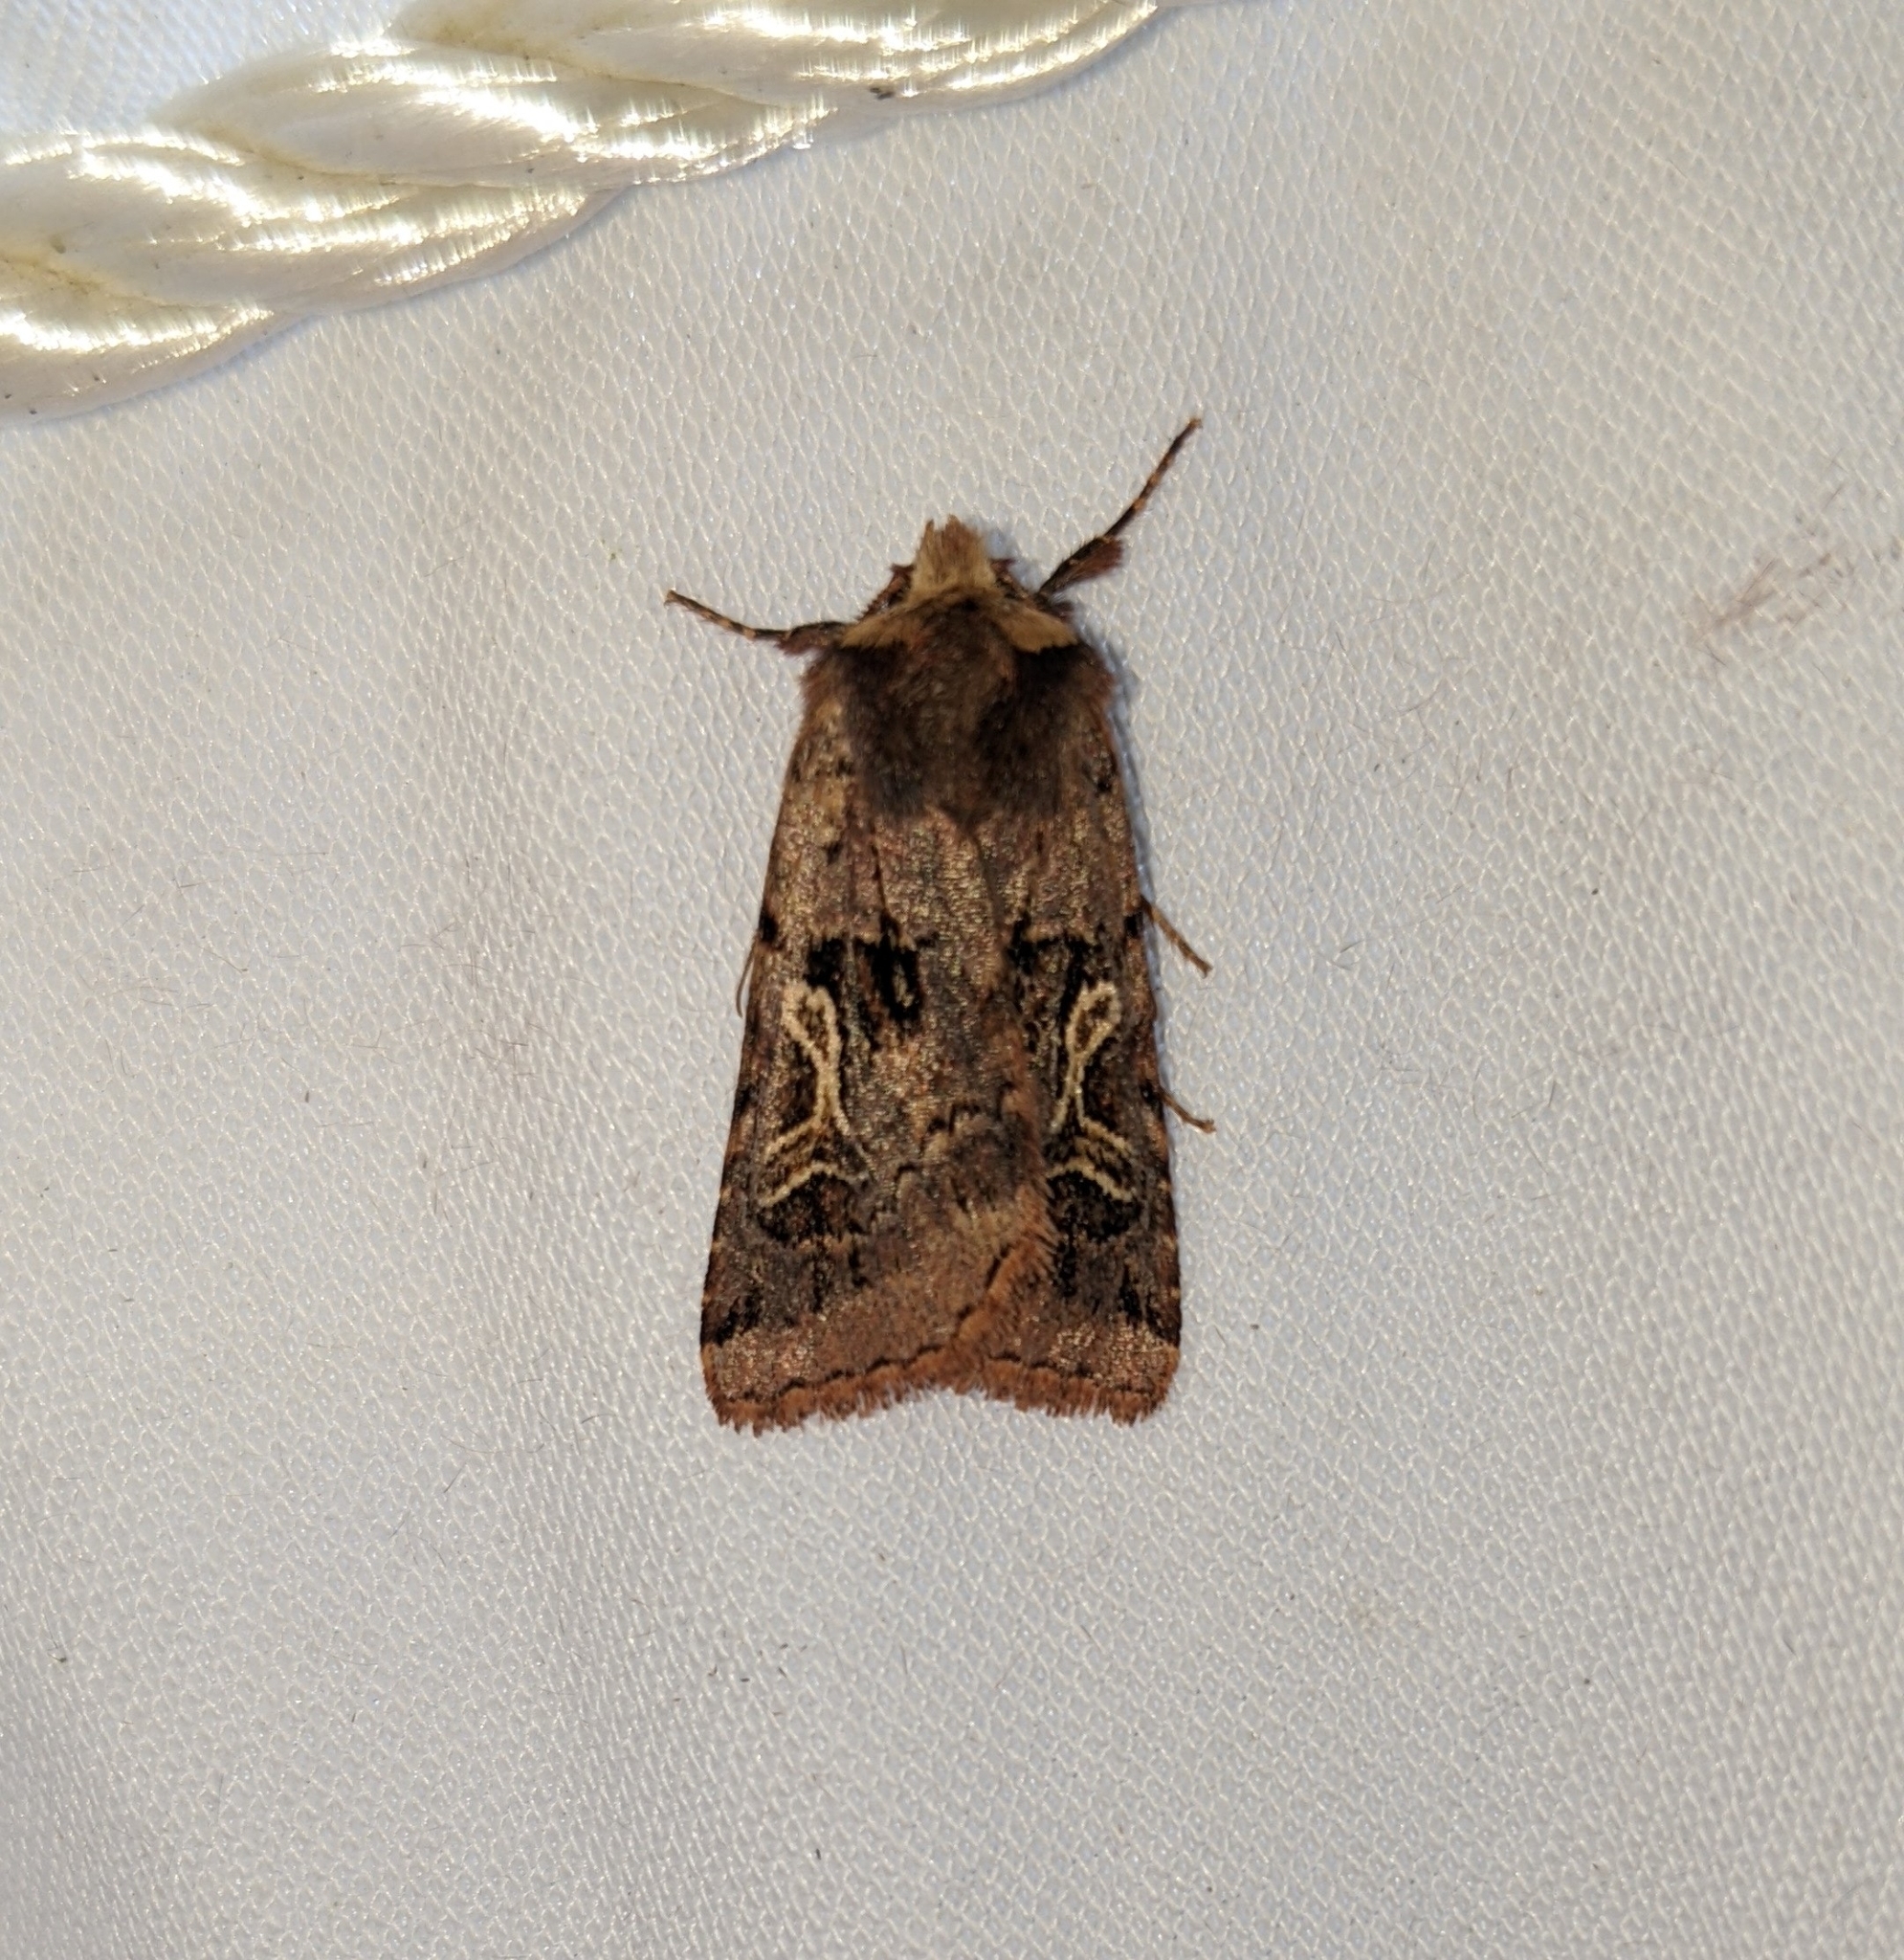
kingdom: Animalia
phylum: Arthropoda
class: Insecta
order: Lepidoptera
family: Noctuidae
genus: Cerastis
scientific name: Cerastis enigmatica
